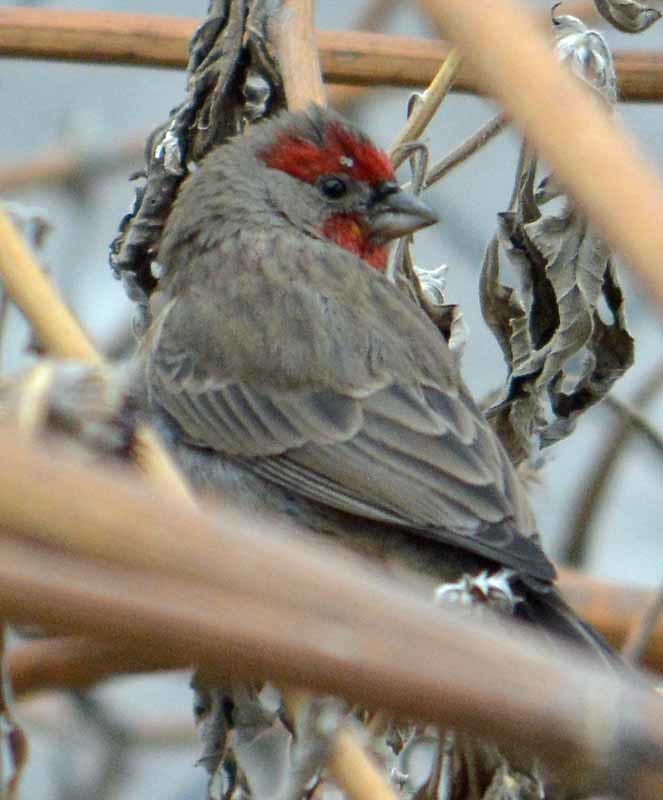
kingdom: Animalia
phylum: Chordata
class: Aves
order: Passeriformes
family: Fringillidae
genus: Haemorhous
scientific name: Haemorhous mexicanus
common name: House finch
